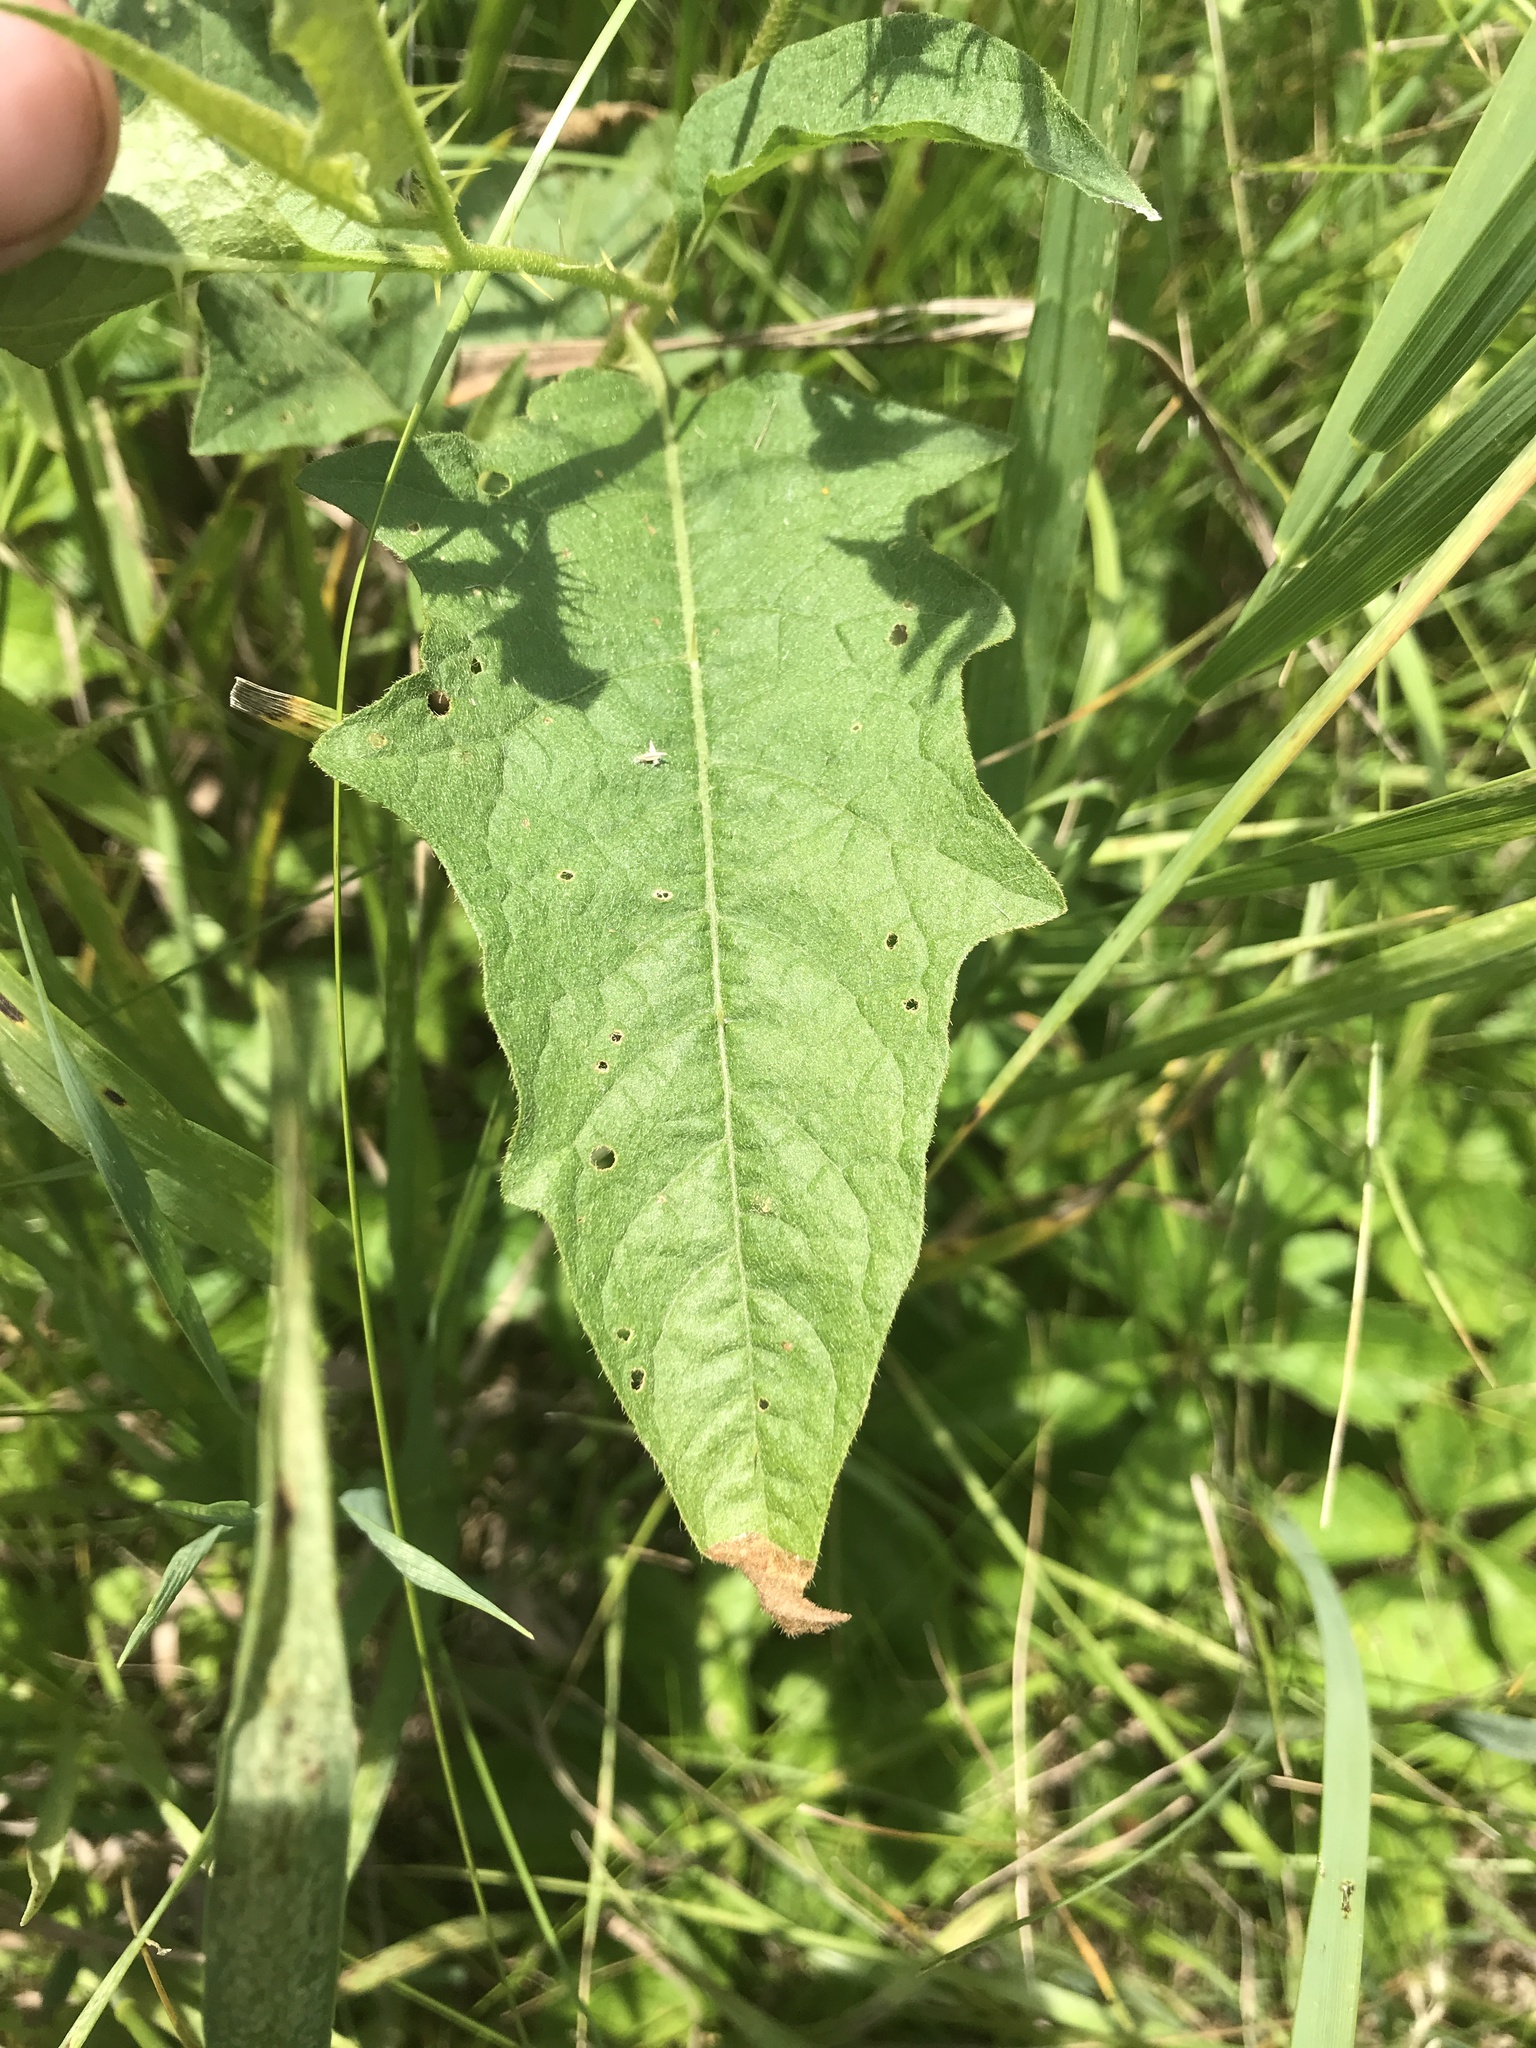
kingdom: Plantae
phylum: Tracheophyta
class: Magnoliopsida
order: Solanales
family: Solanaceae
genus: Solanum
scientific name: Solanum carolinense
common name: Horse-nettle
